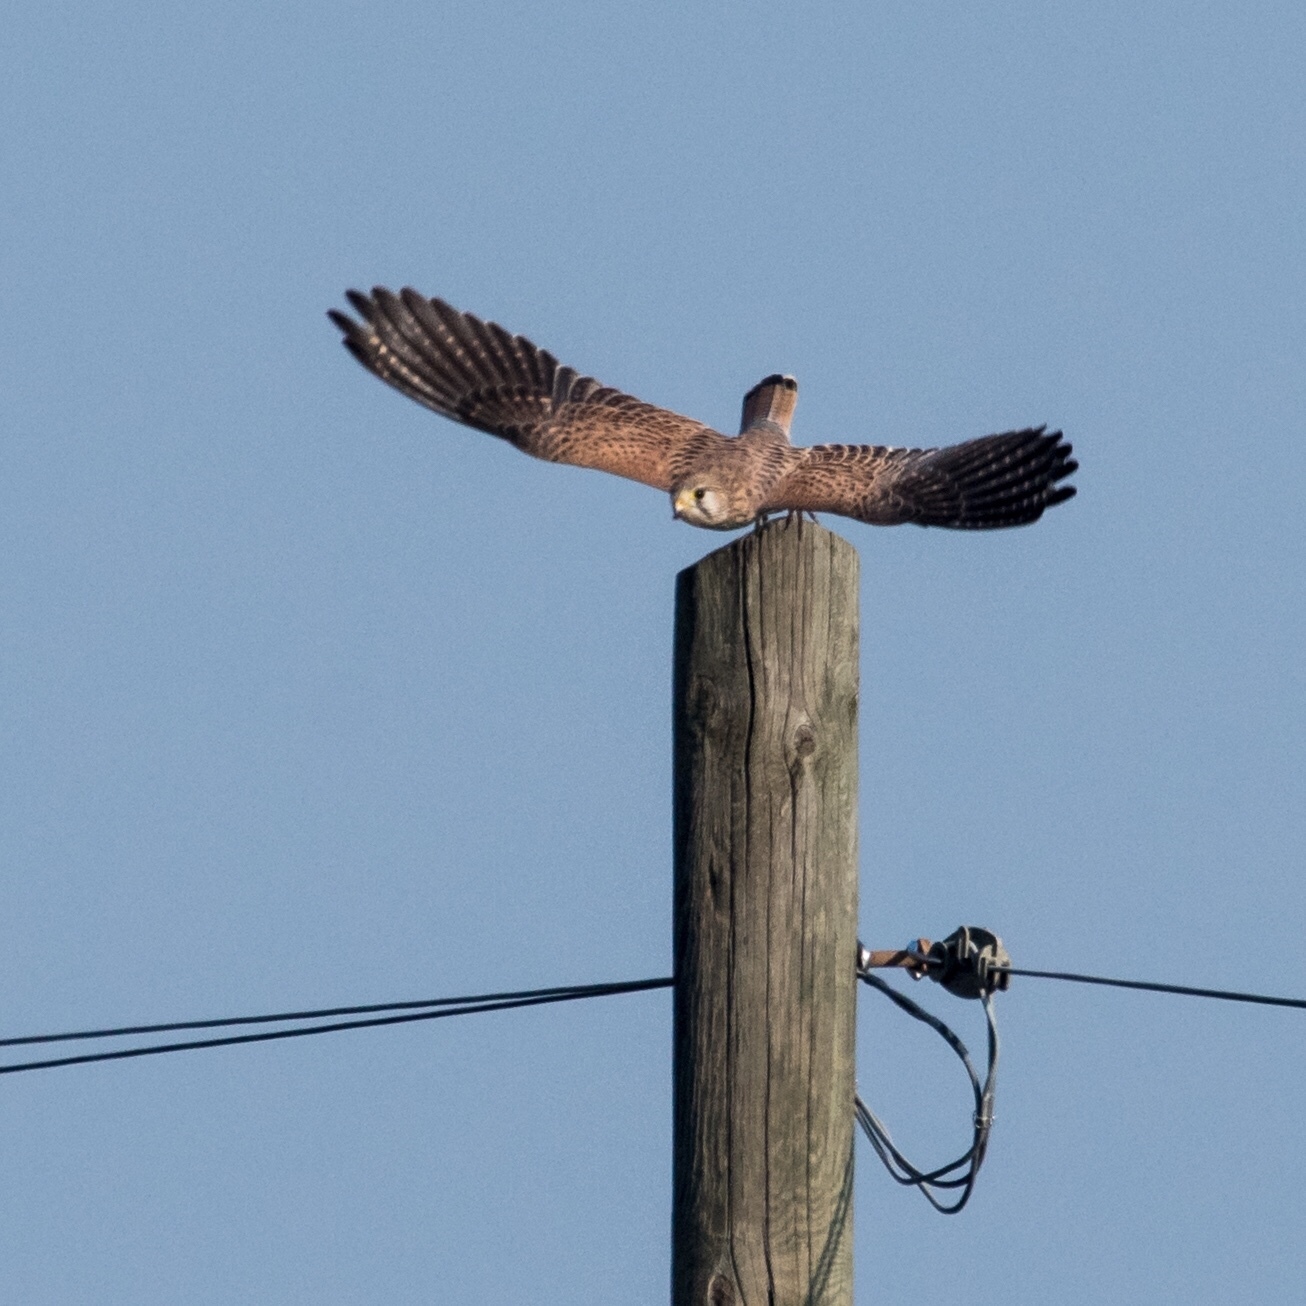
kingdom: Animalia
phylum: Chordata
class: Aves
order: Falconiformes
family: Falconidae
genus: Falco
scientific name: Falco tinnunculus
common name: Common kestrel
